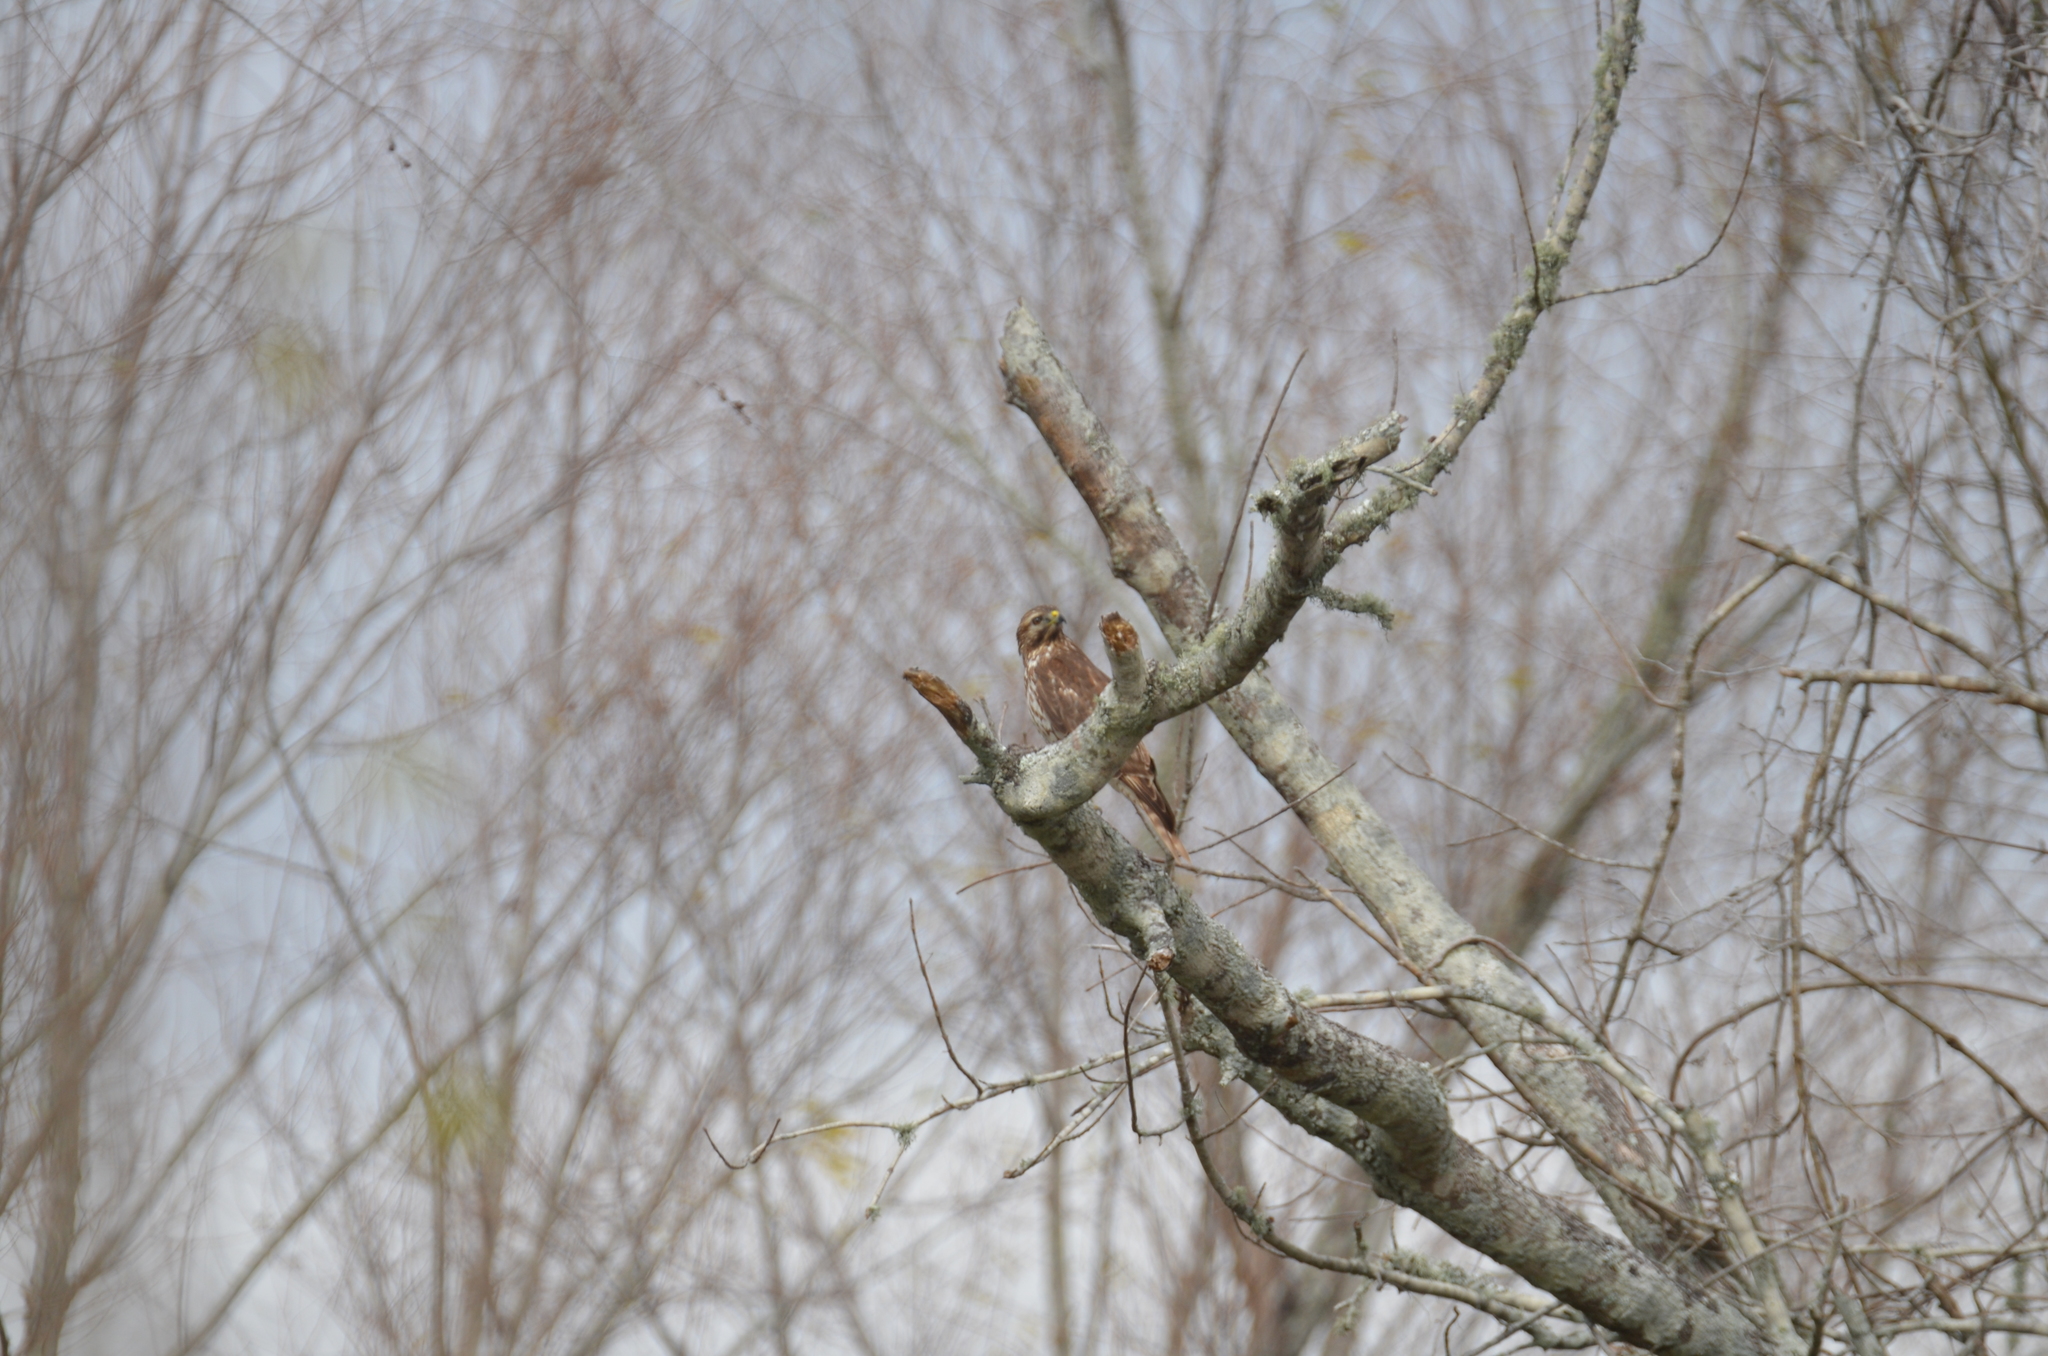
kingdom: Animalia
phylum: Chordata
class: Aves
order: Accipitriformes
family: Accipitridae
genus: Buteo
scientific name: Buteo lineatus
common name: Red-shouldered hawk
